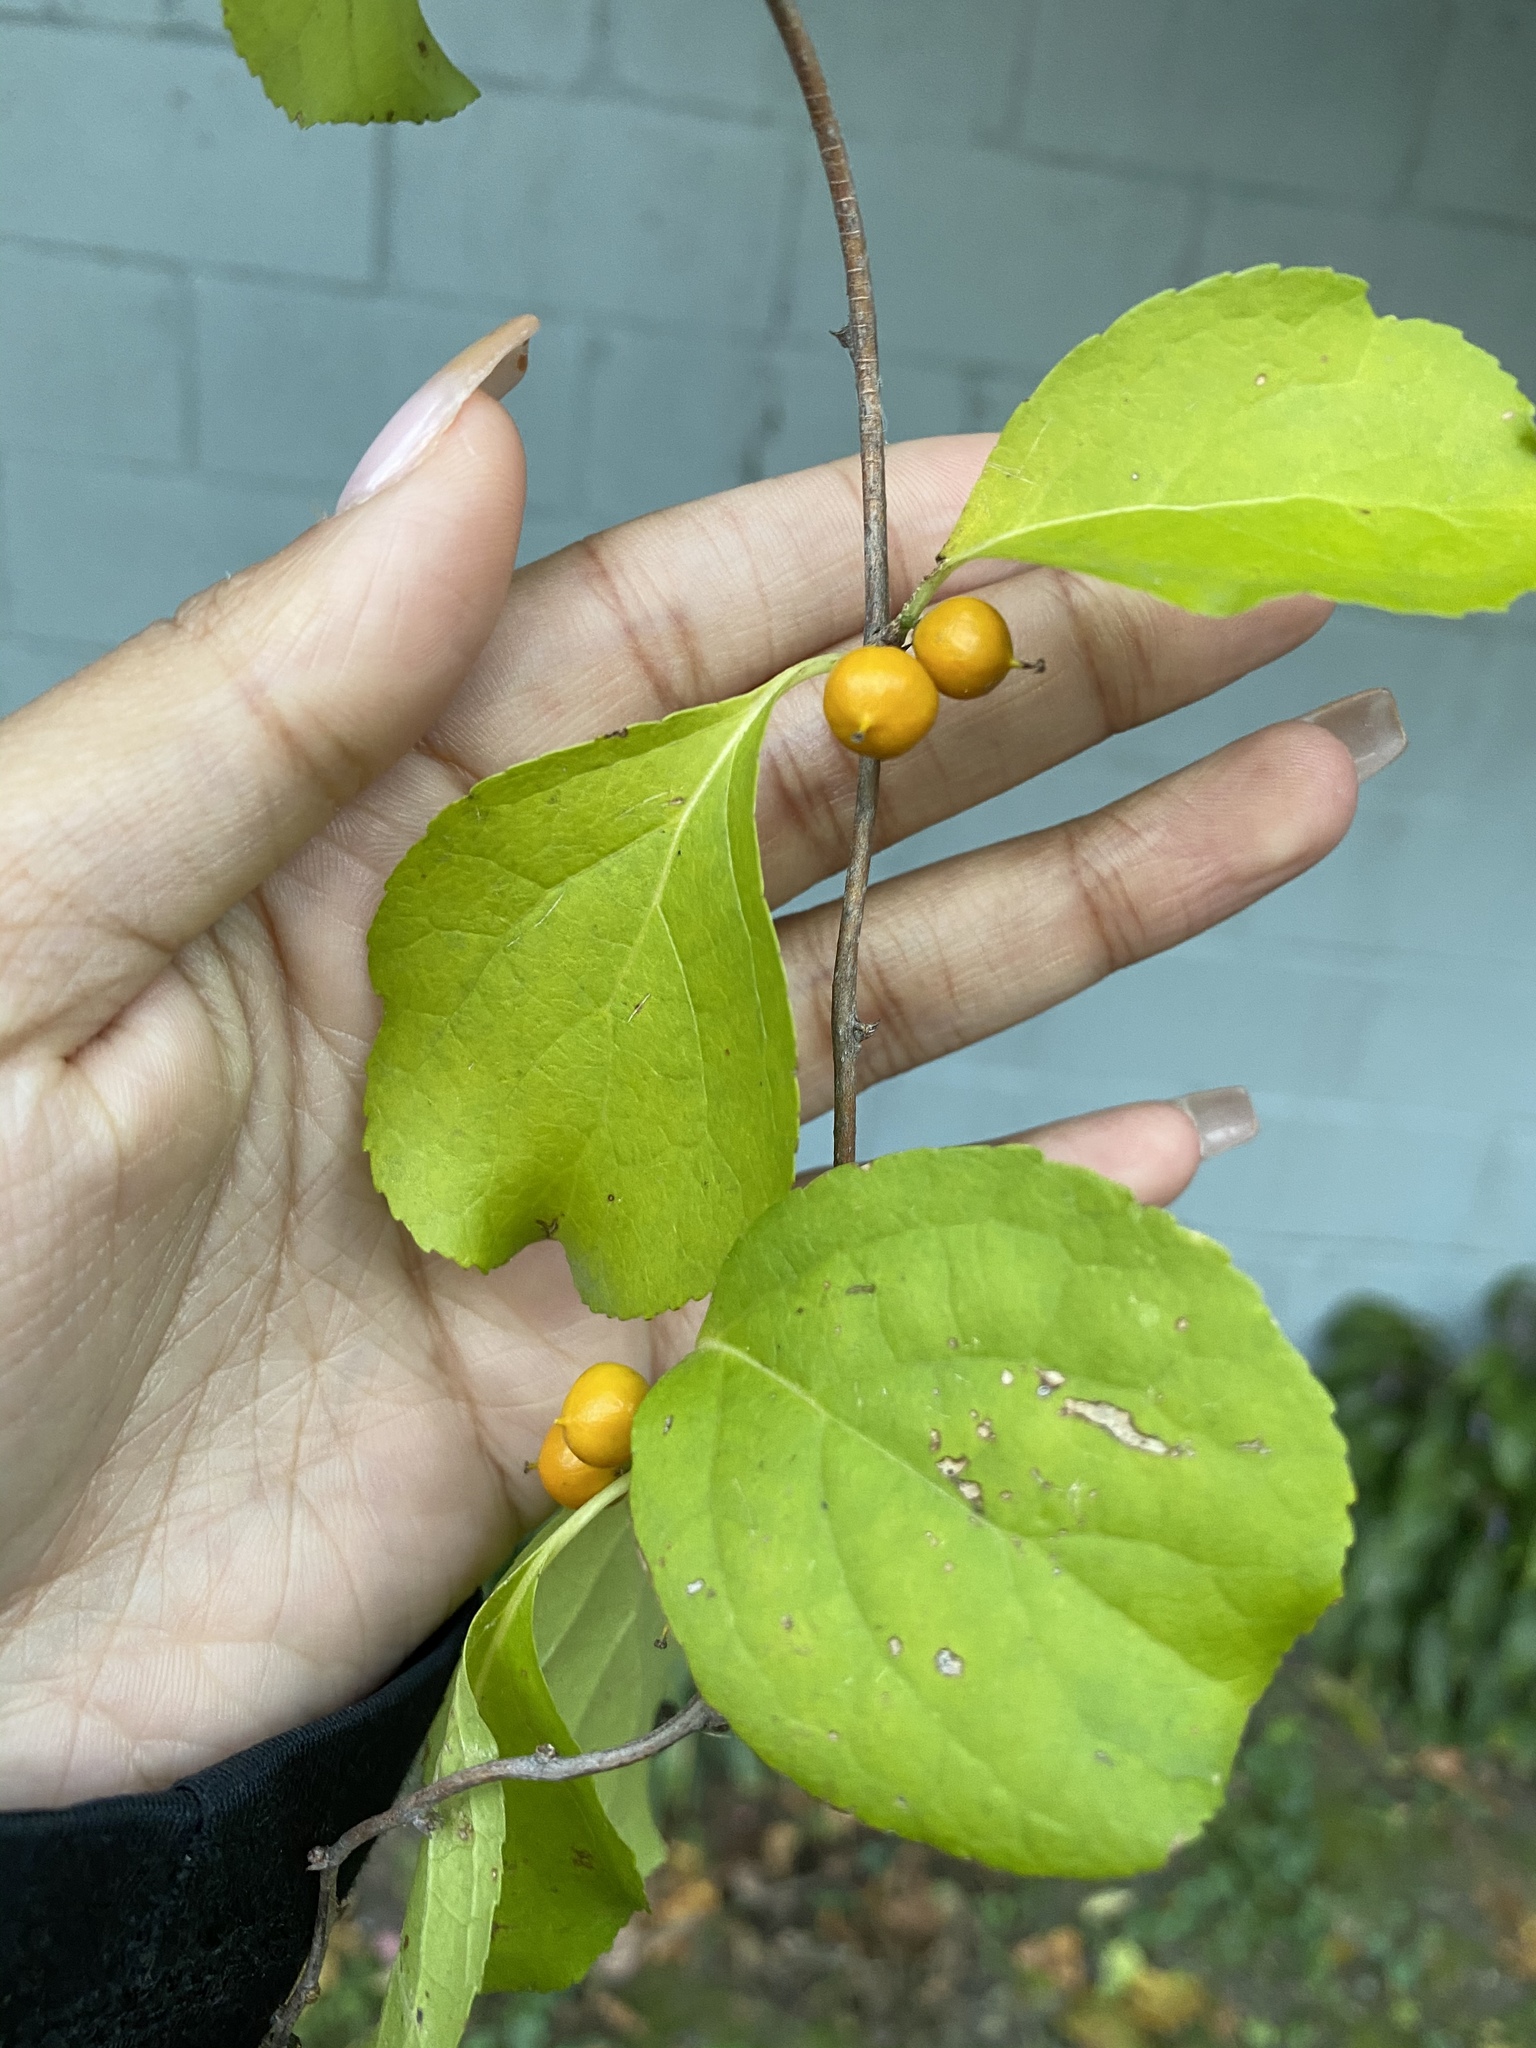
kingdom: Plantae
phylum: Tracheophyta
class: Magnoliopsida
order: Celastrales
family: Celastraceae
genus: Celastrus
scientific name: Celastrus orbiculatus
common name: Oriental bittersweet
